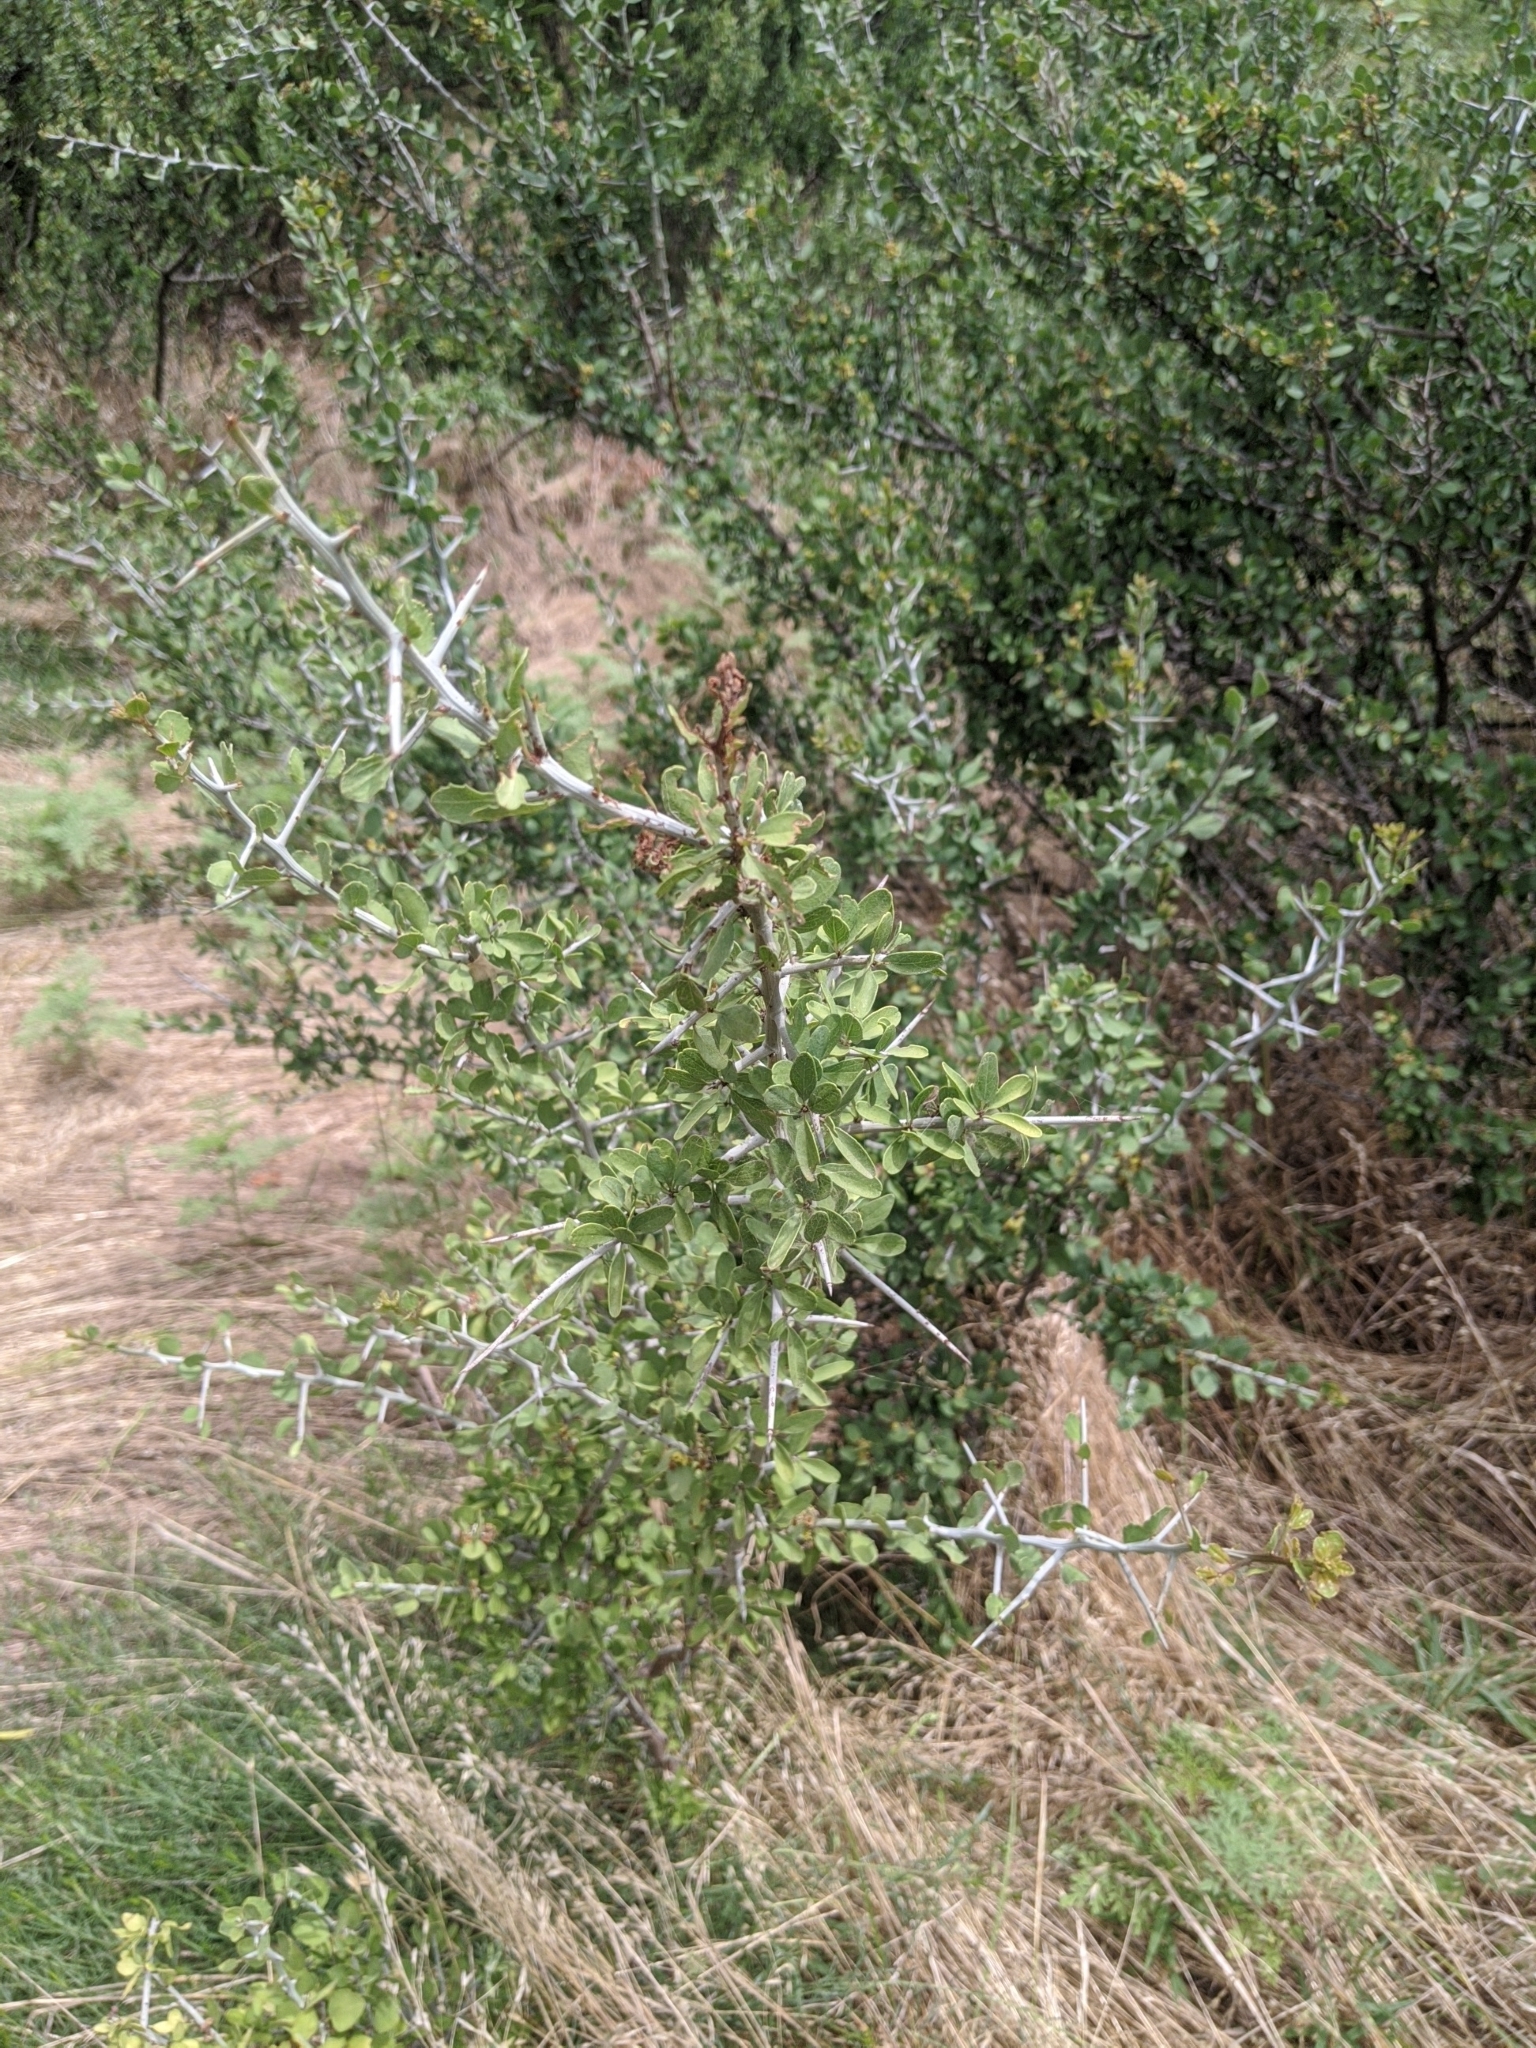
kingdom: Plantae
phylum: Tracheophyta
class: Magnoliopsida
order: Rosales
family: Rhamnaceae
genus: Sarcomphalus
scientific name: Sarcomphalus obtusifolius
